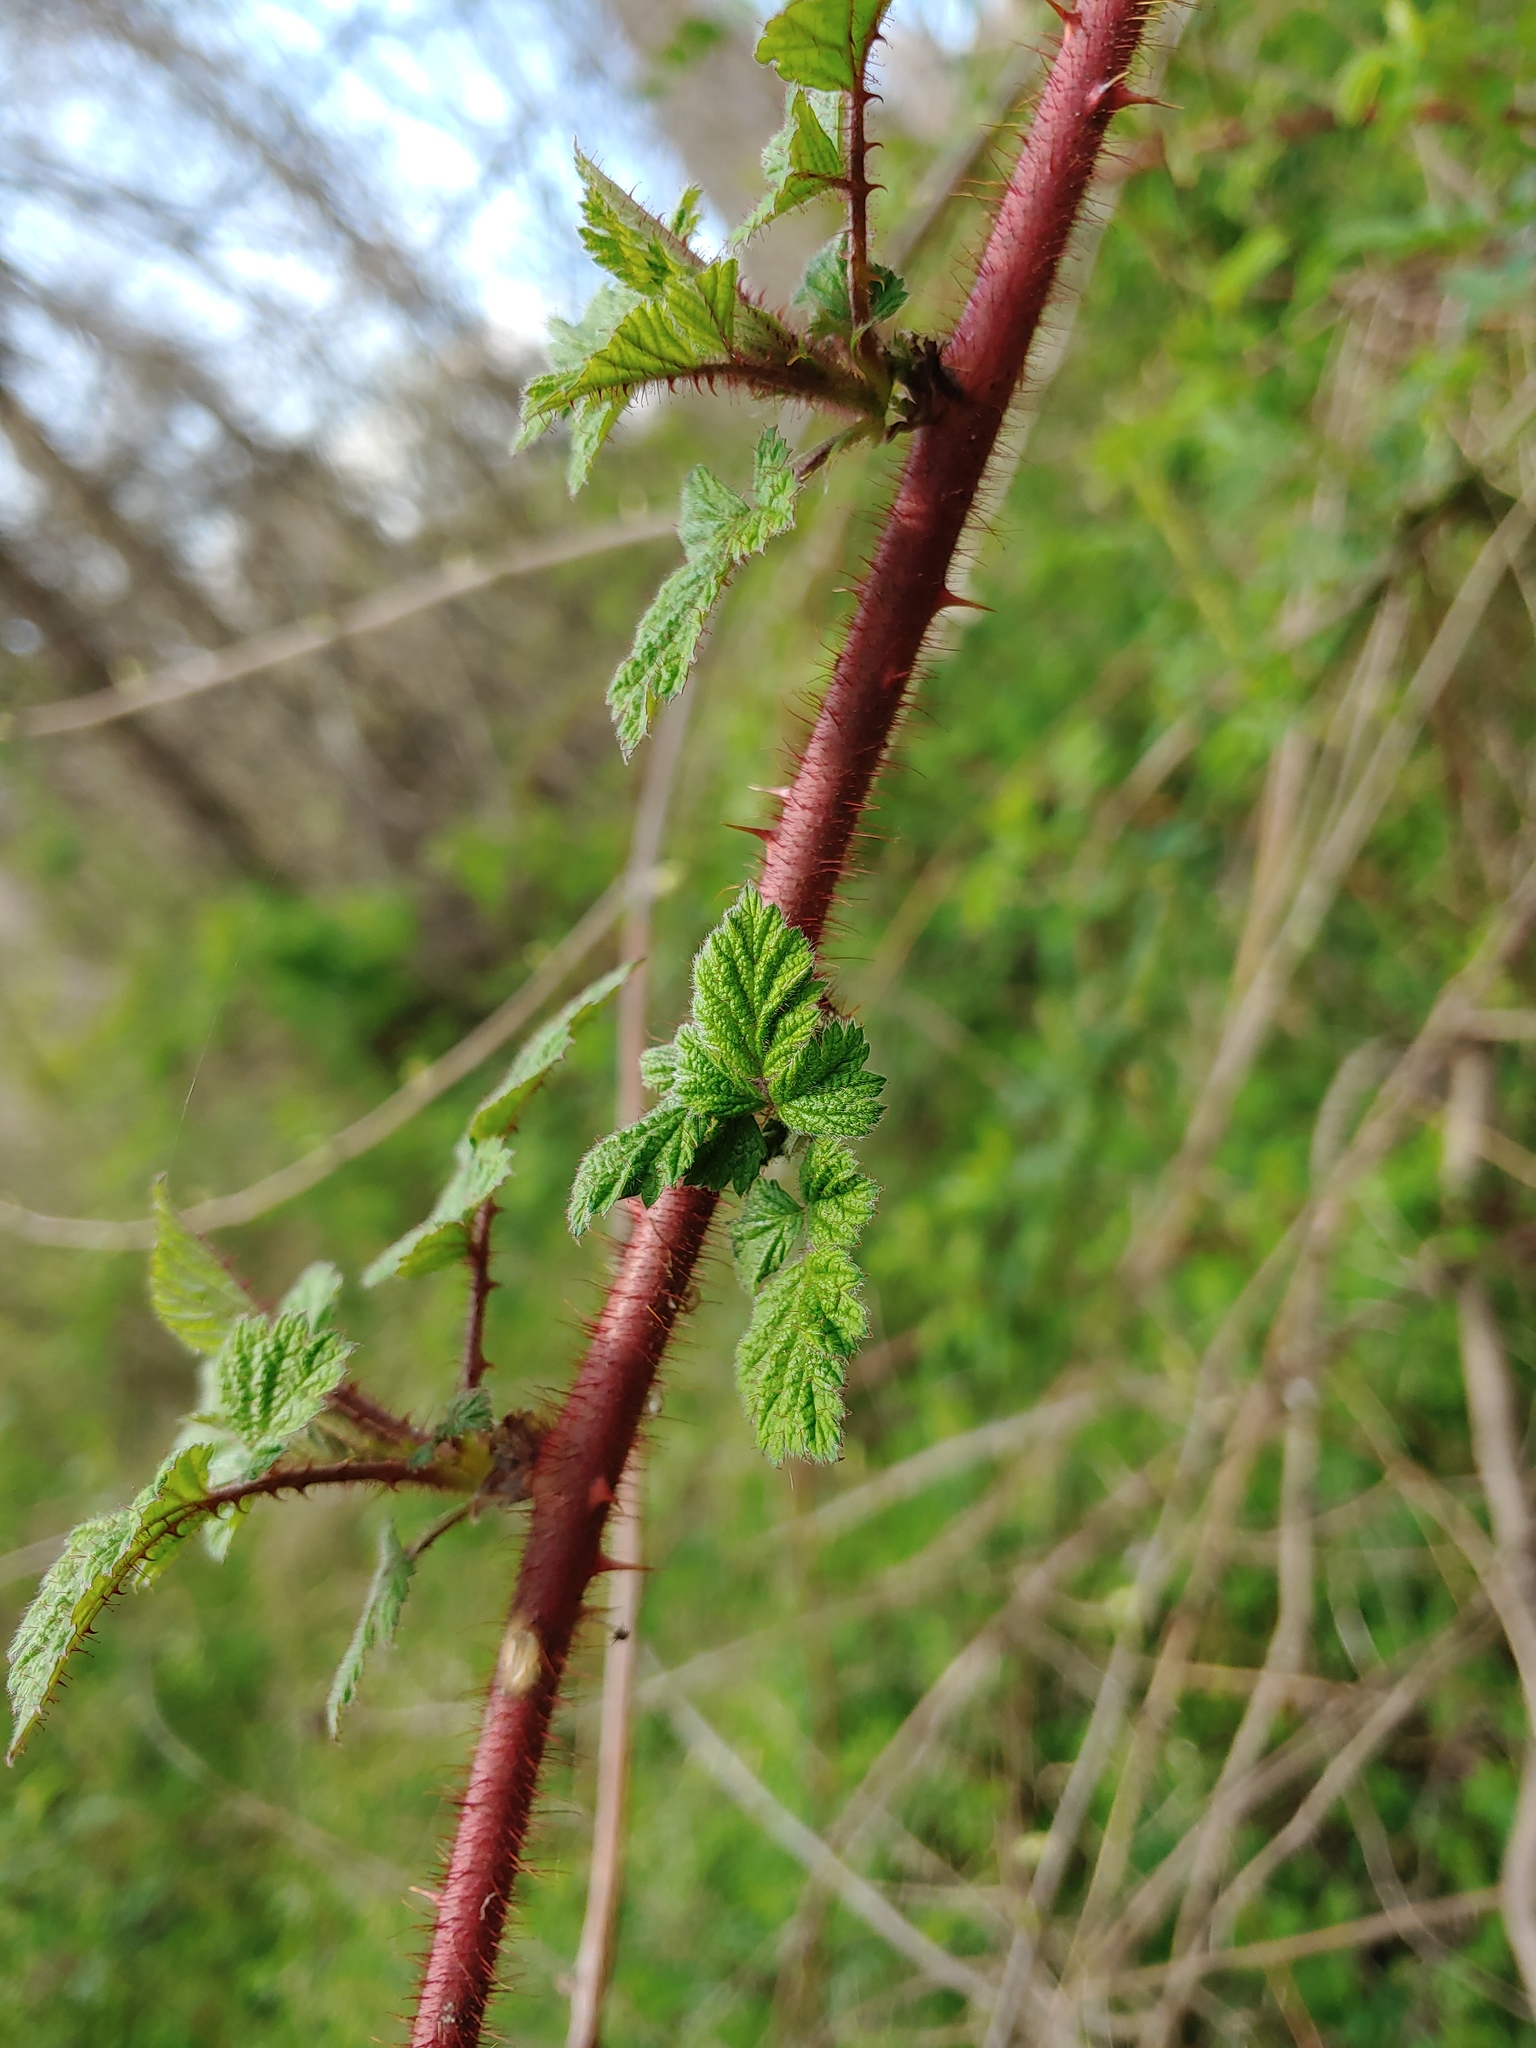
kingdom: Plantae
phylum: Tracheophyta
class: Magnoliopsida
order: Rosales
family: Rosaceae
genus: Rubus
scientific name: Rubus phoenicolasius
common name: Japanese wineberry
